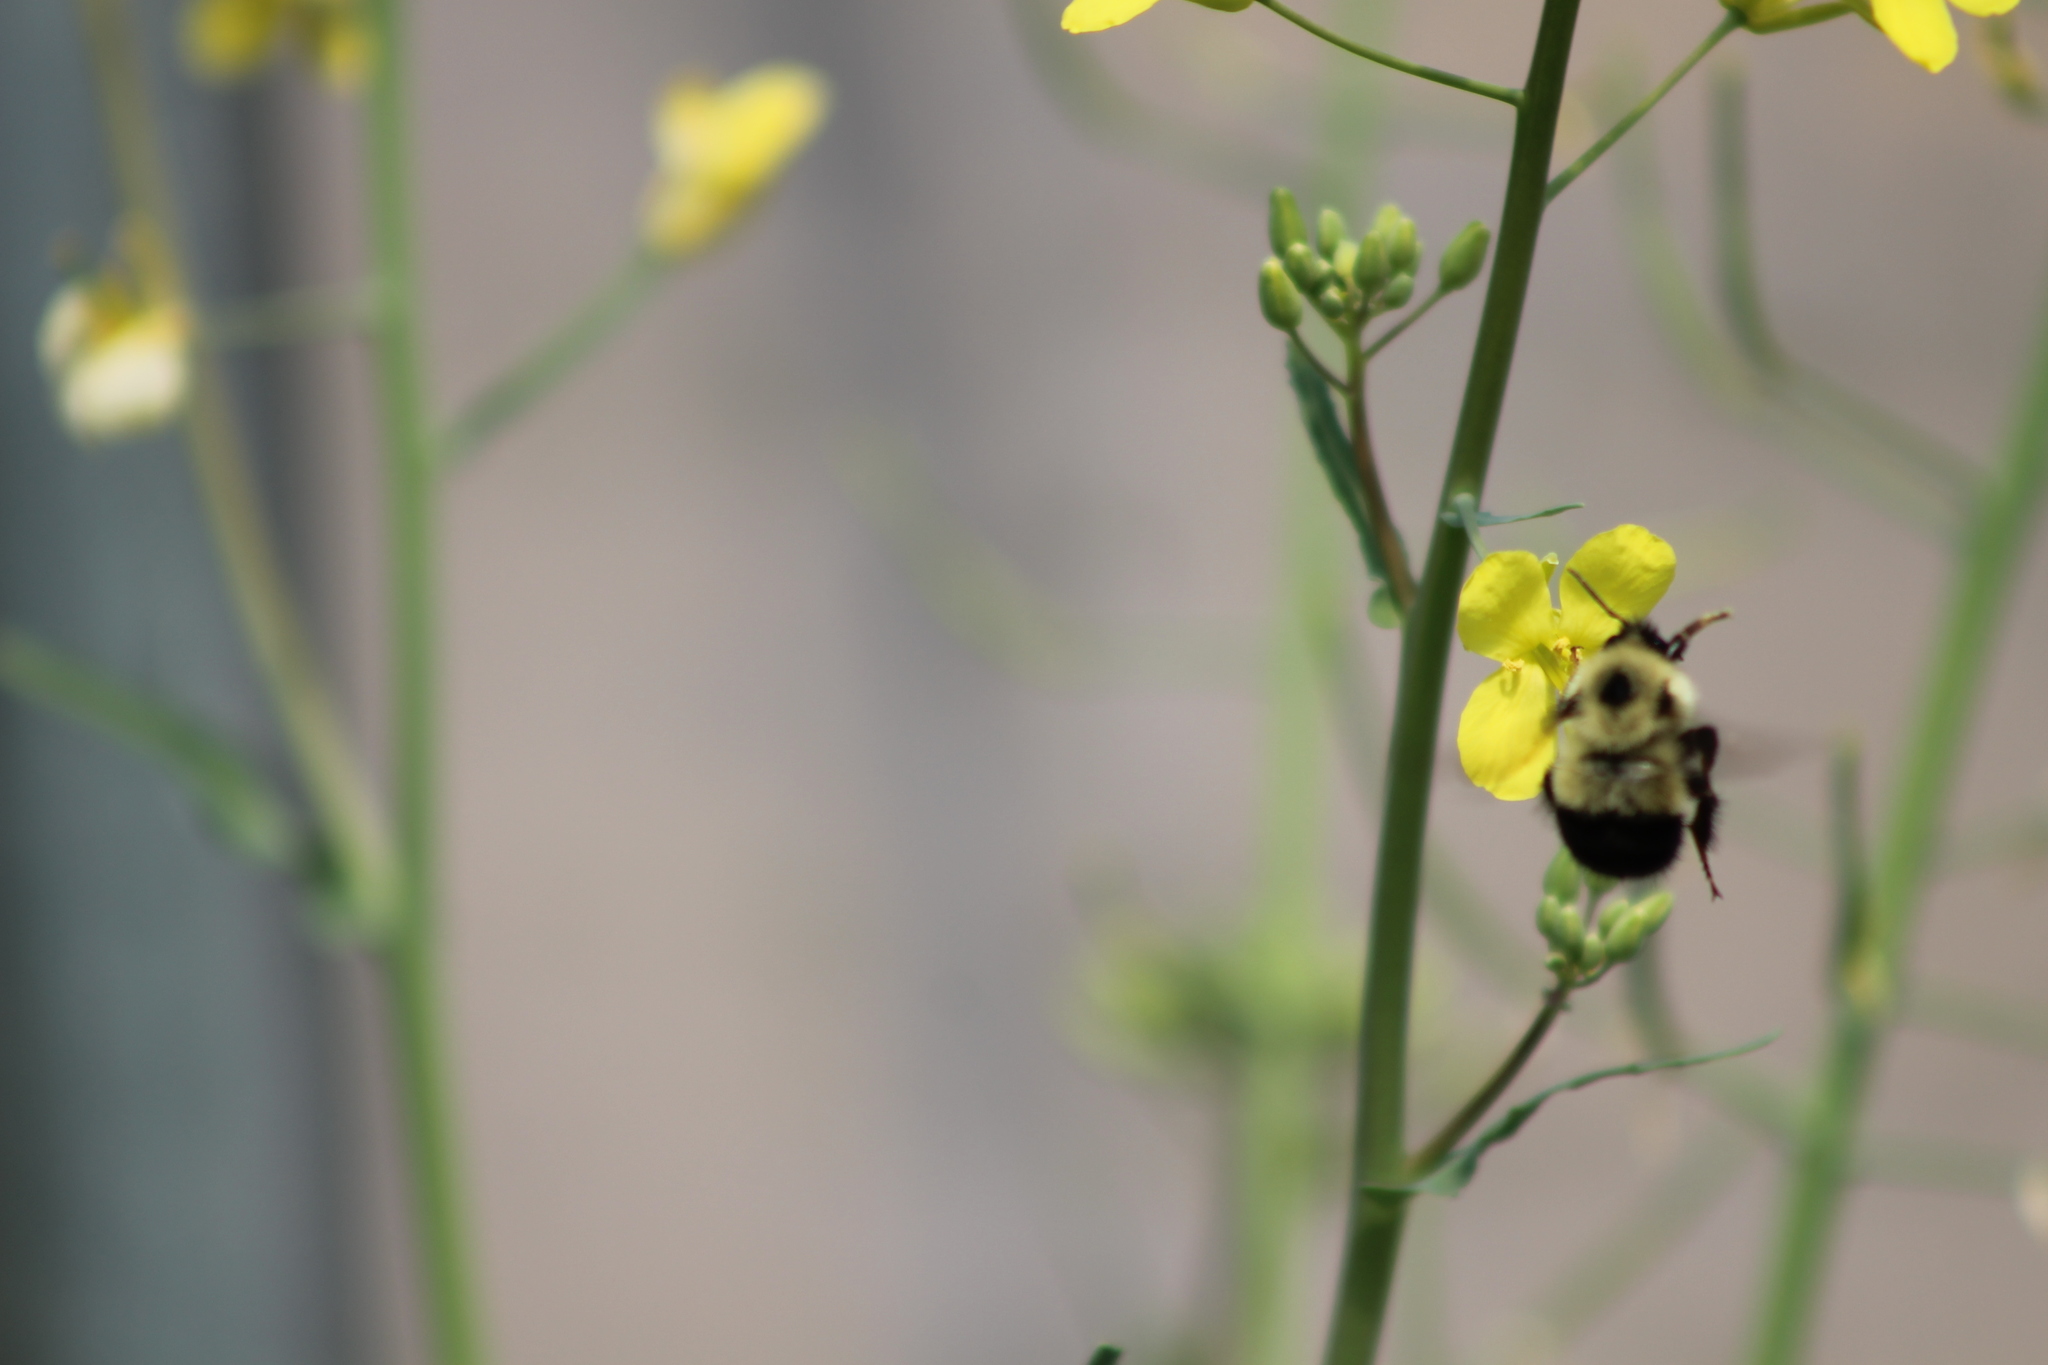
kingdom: Animalia
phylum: Arthropoda
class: Insecta
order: Hymenoptera
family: Apidae
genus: Bombus
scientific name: Bombus vagans
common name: Half-black bumble bee
